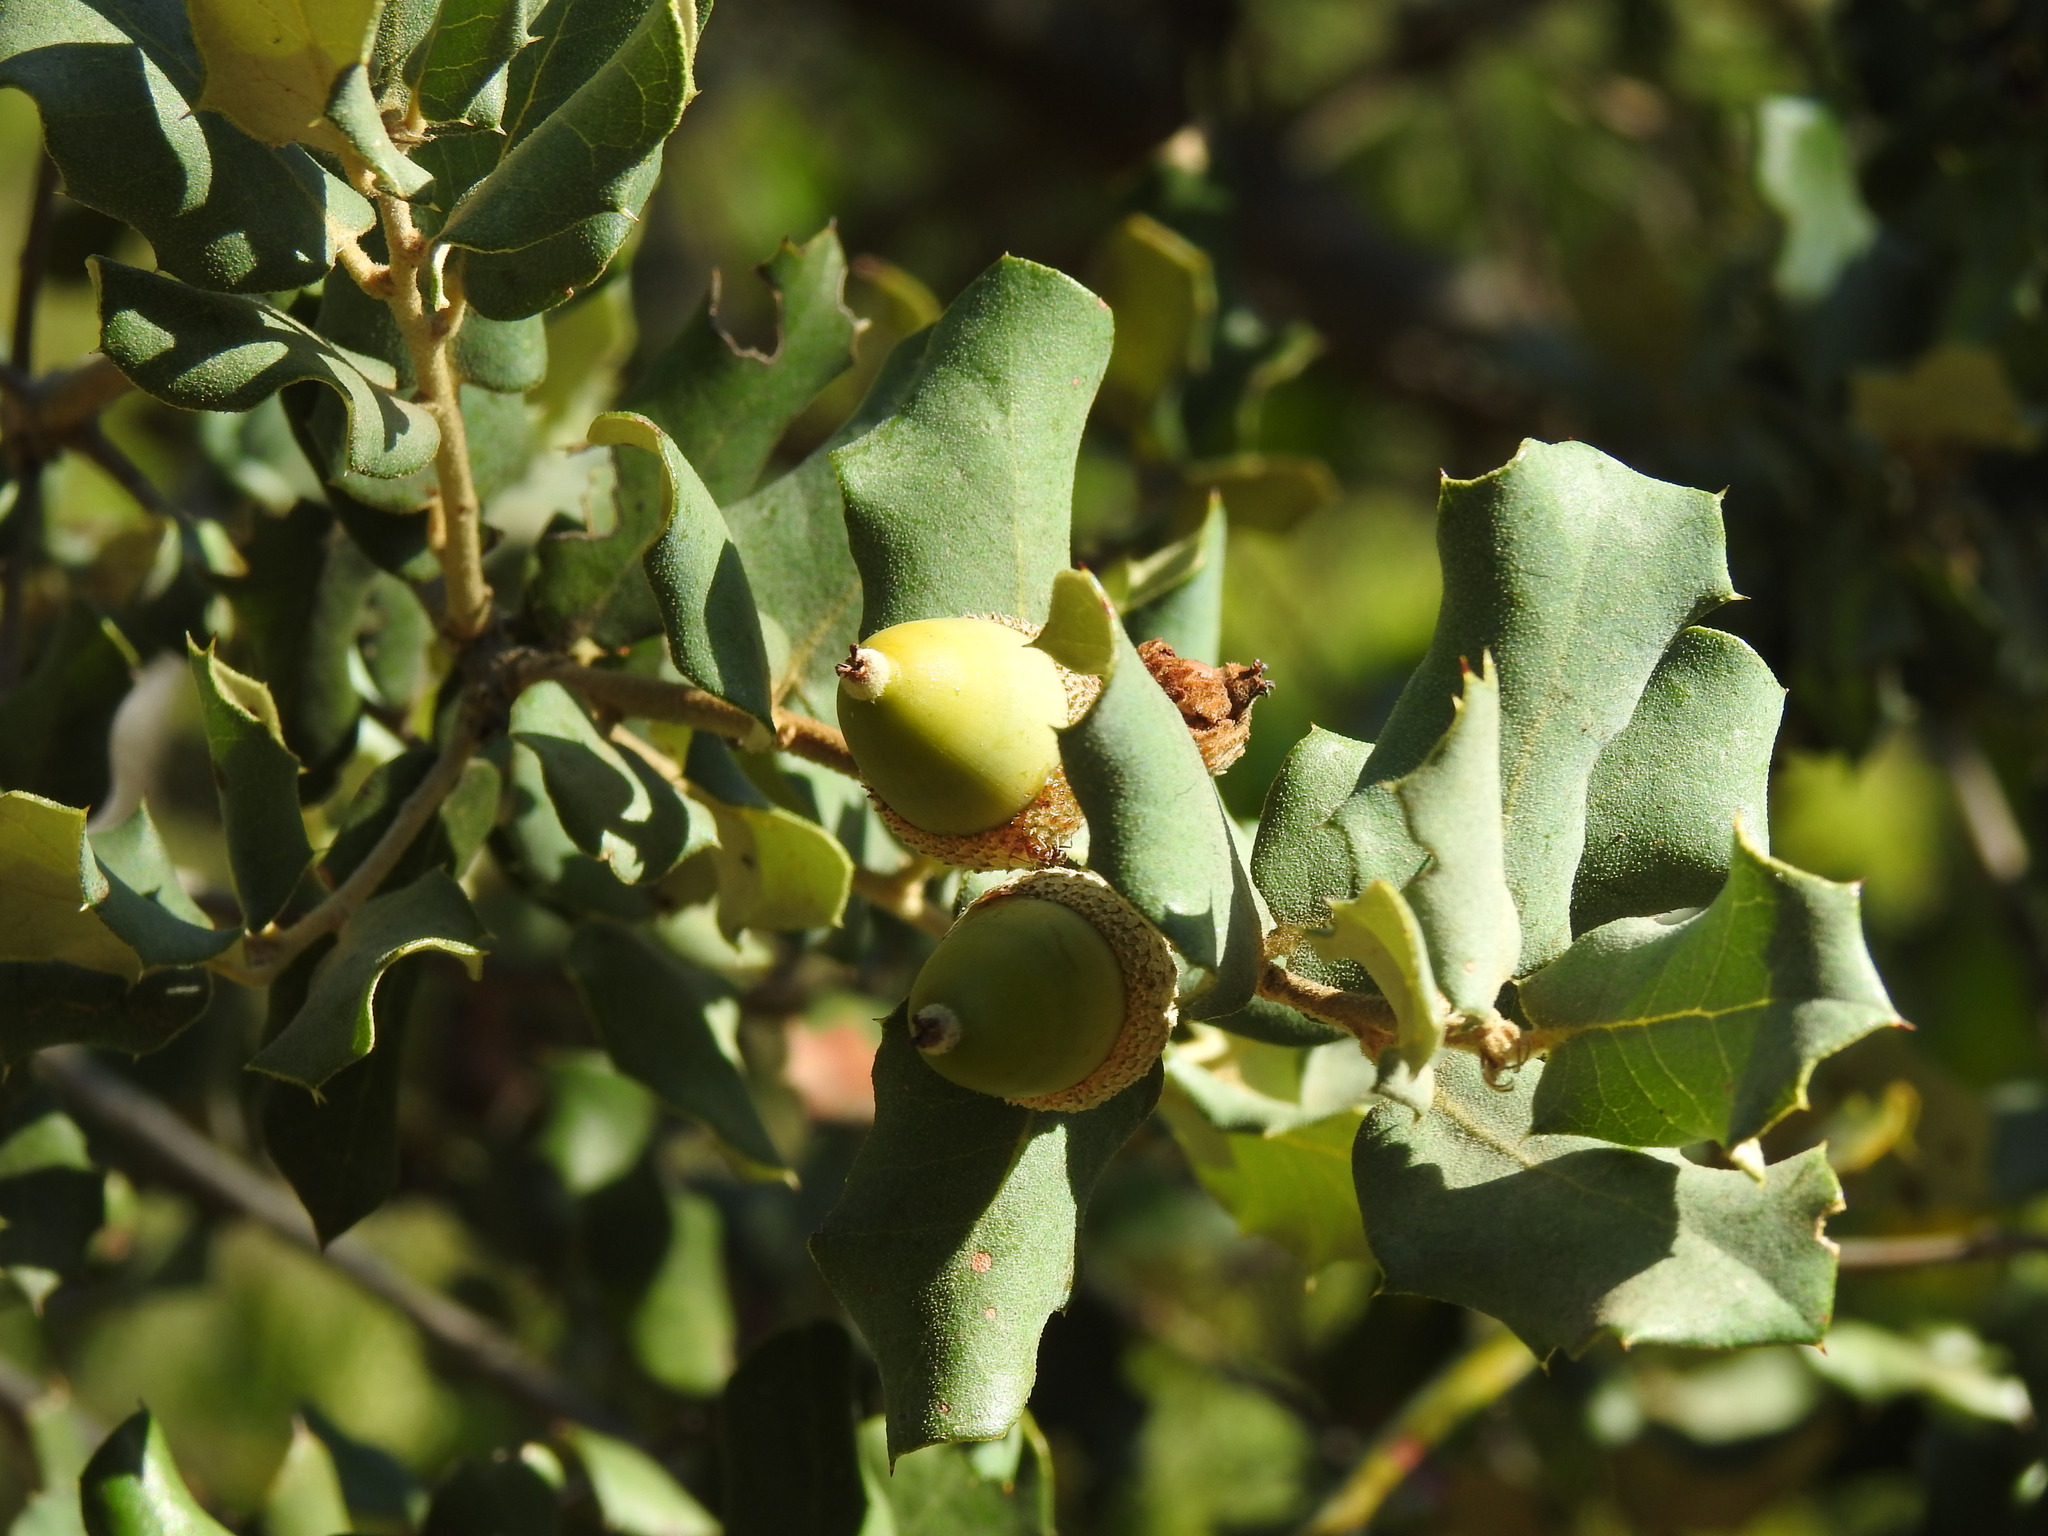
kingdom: Plantae
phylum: Tracheophyta
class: Magnoliopsida
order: Fagales
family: Fagaceae
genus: Quercus
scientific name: Quercus rotundifolia
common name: Holm oak
